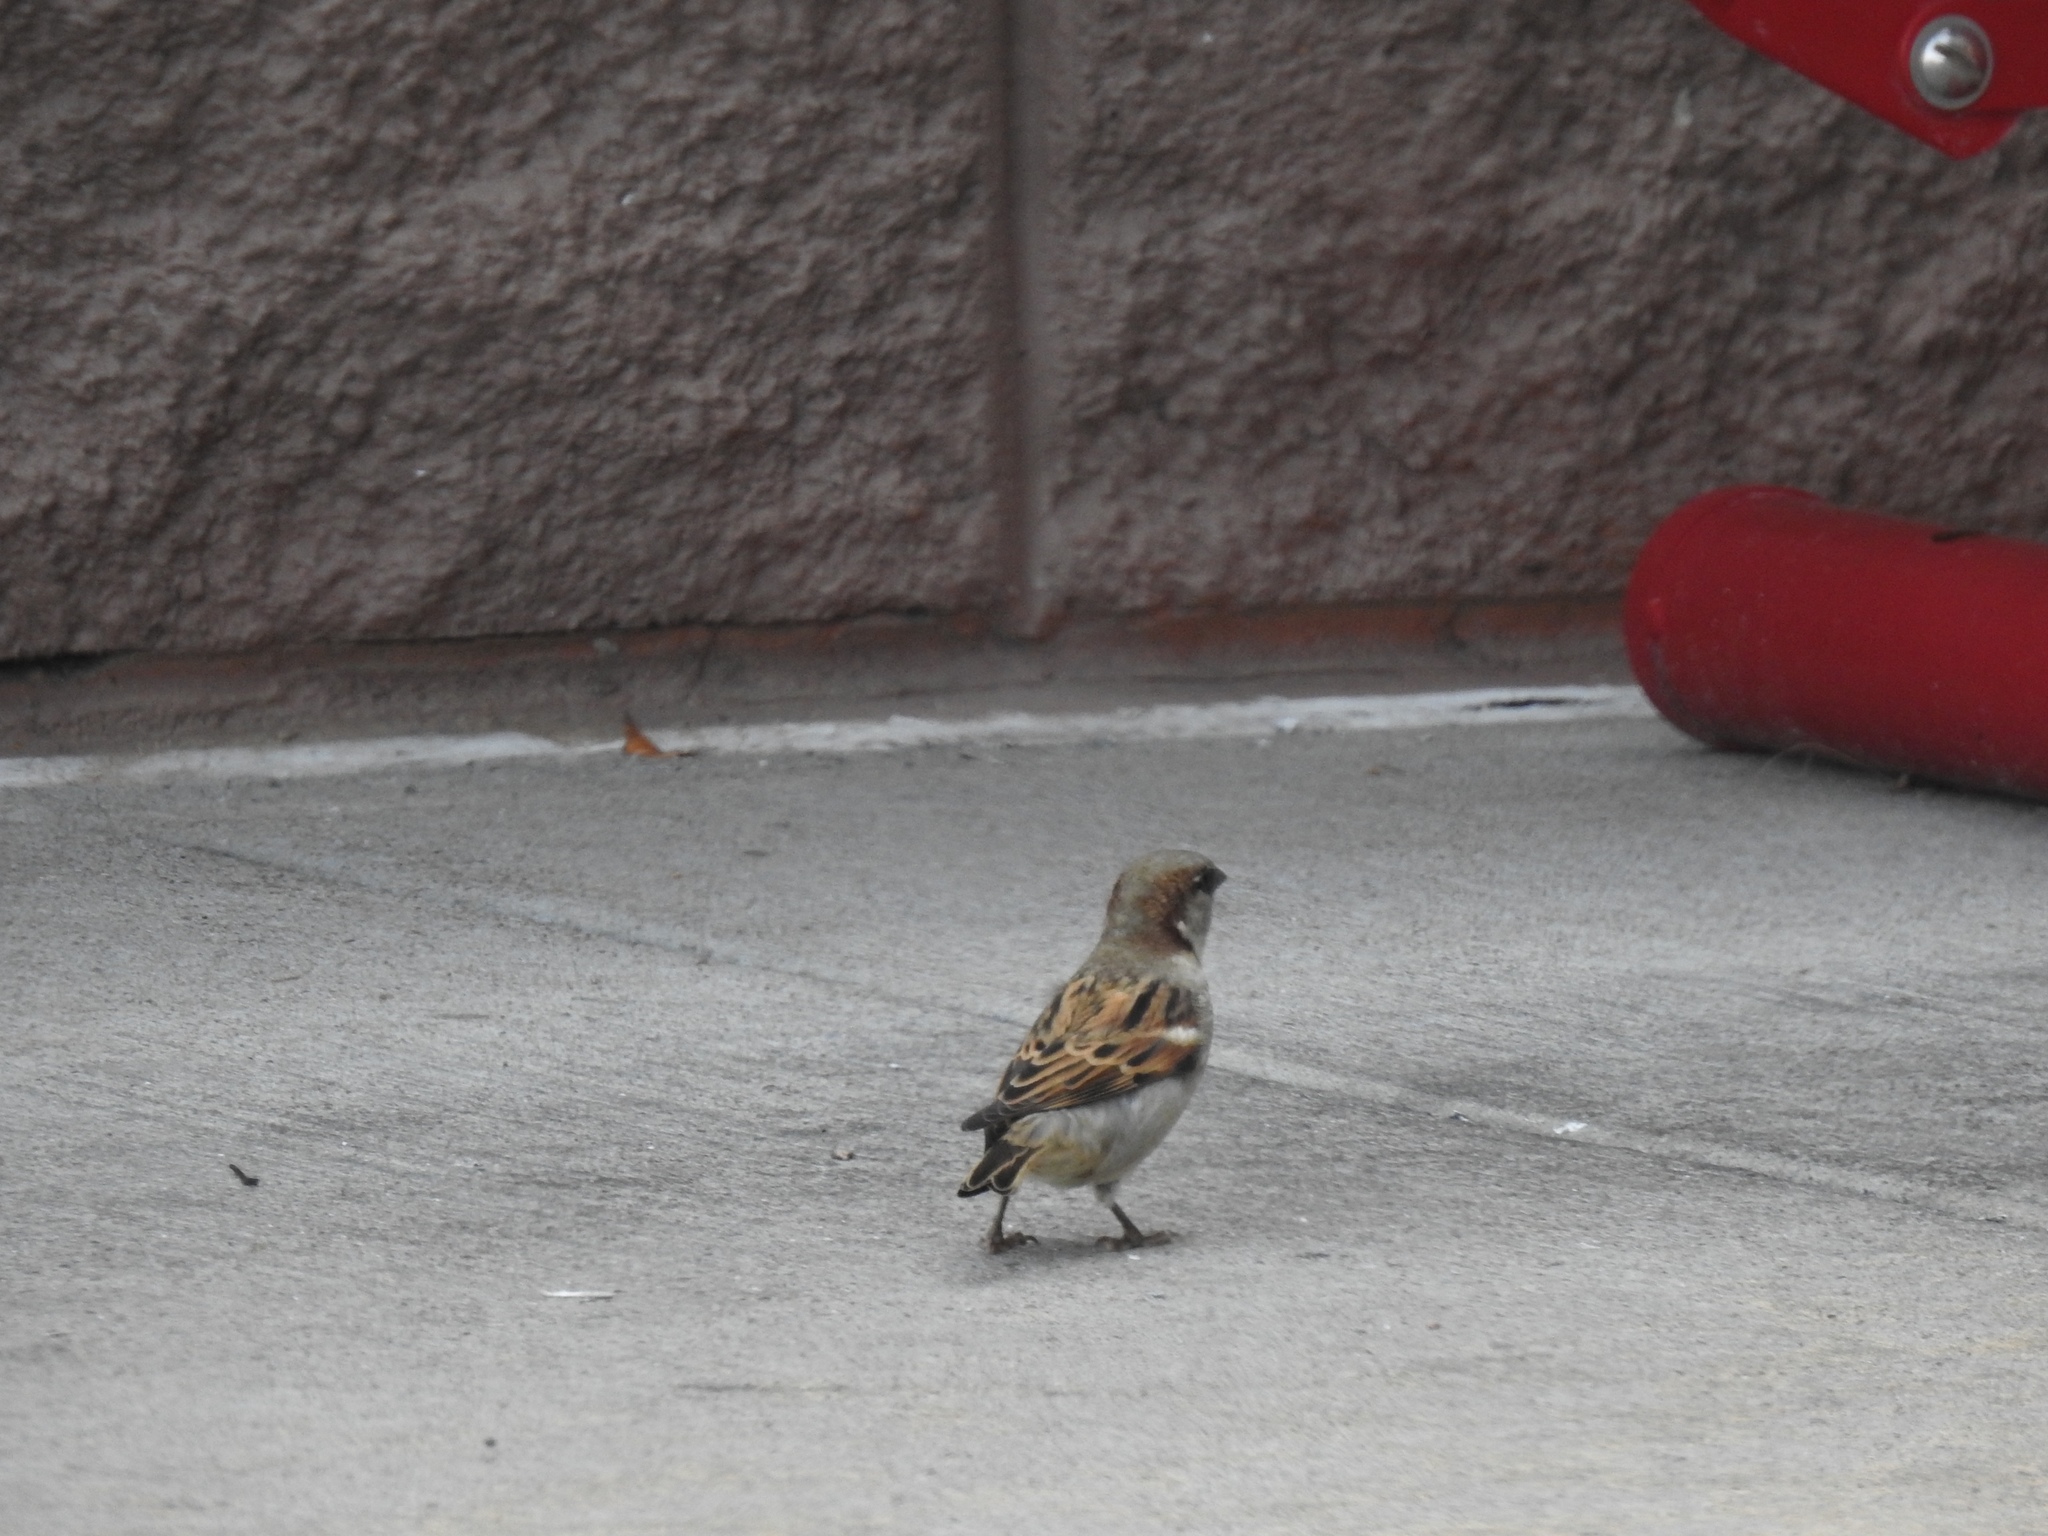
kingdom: Animalia
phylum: Chordata
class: Aves
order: Passeriformes
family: Passeridae
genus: Passer
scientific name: Passer domesticus
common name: House sparrow
